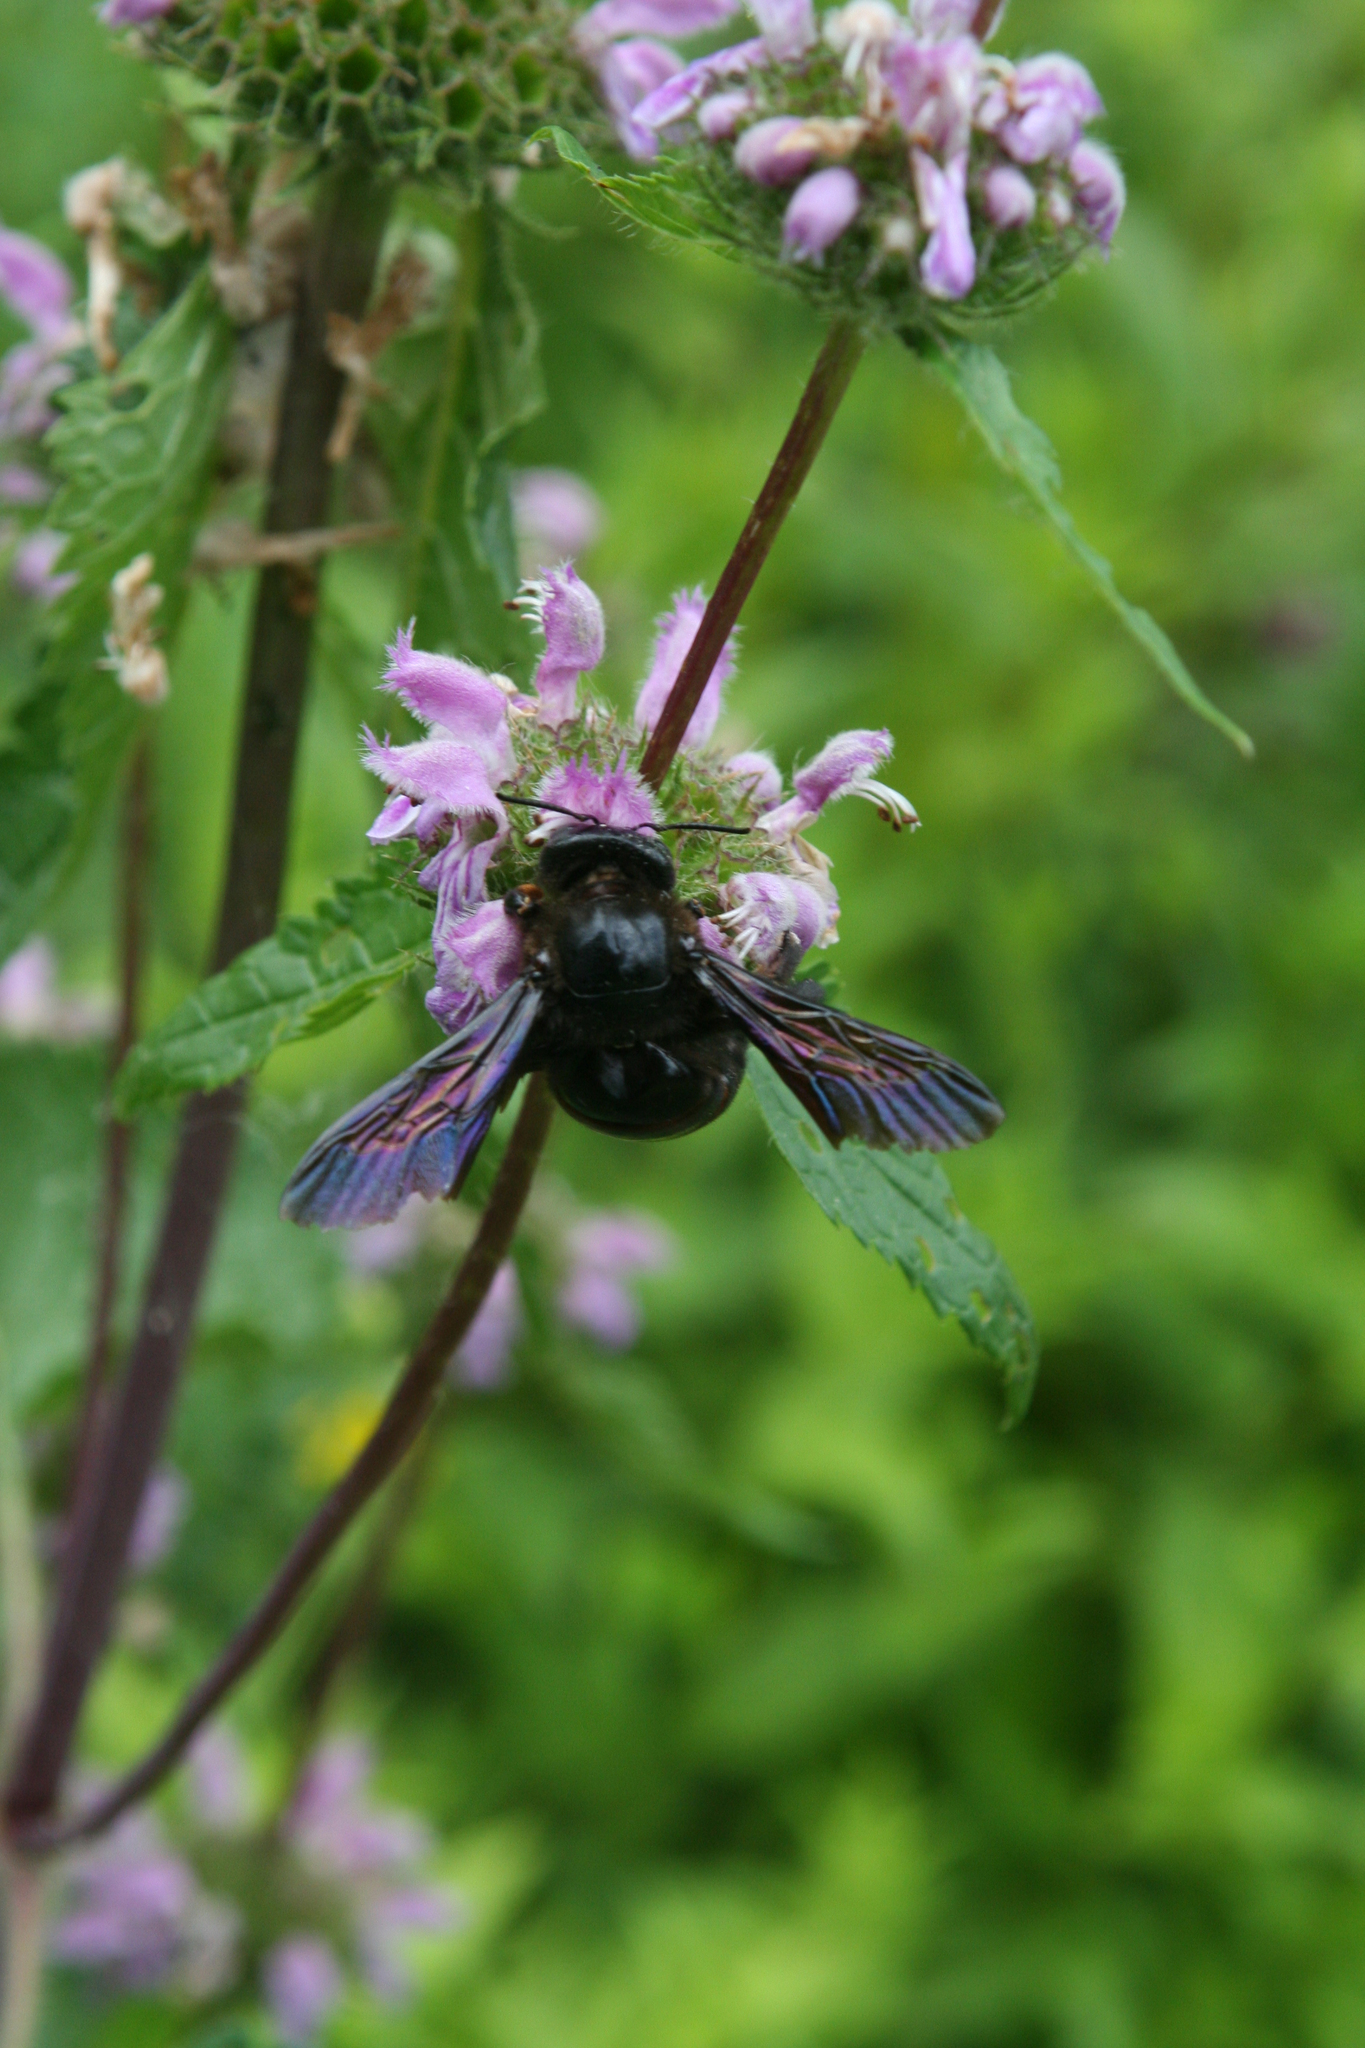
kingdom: Animalia
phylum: Arthropoda
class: Insecta
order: Hymenoptera
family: Apidae
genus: Xylocopa
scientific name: Xylocopa valga
